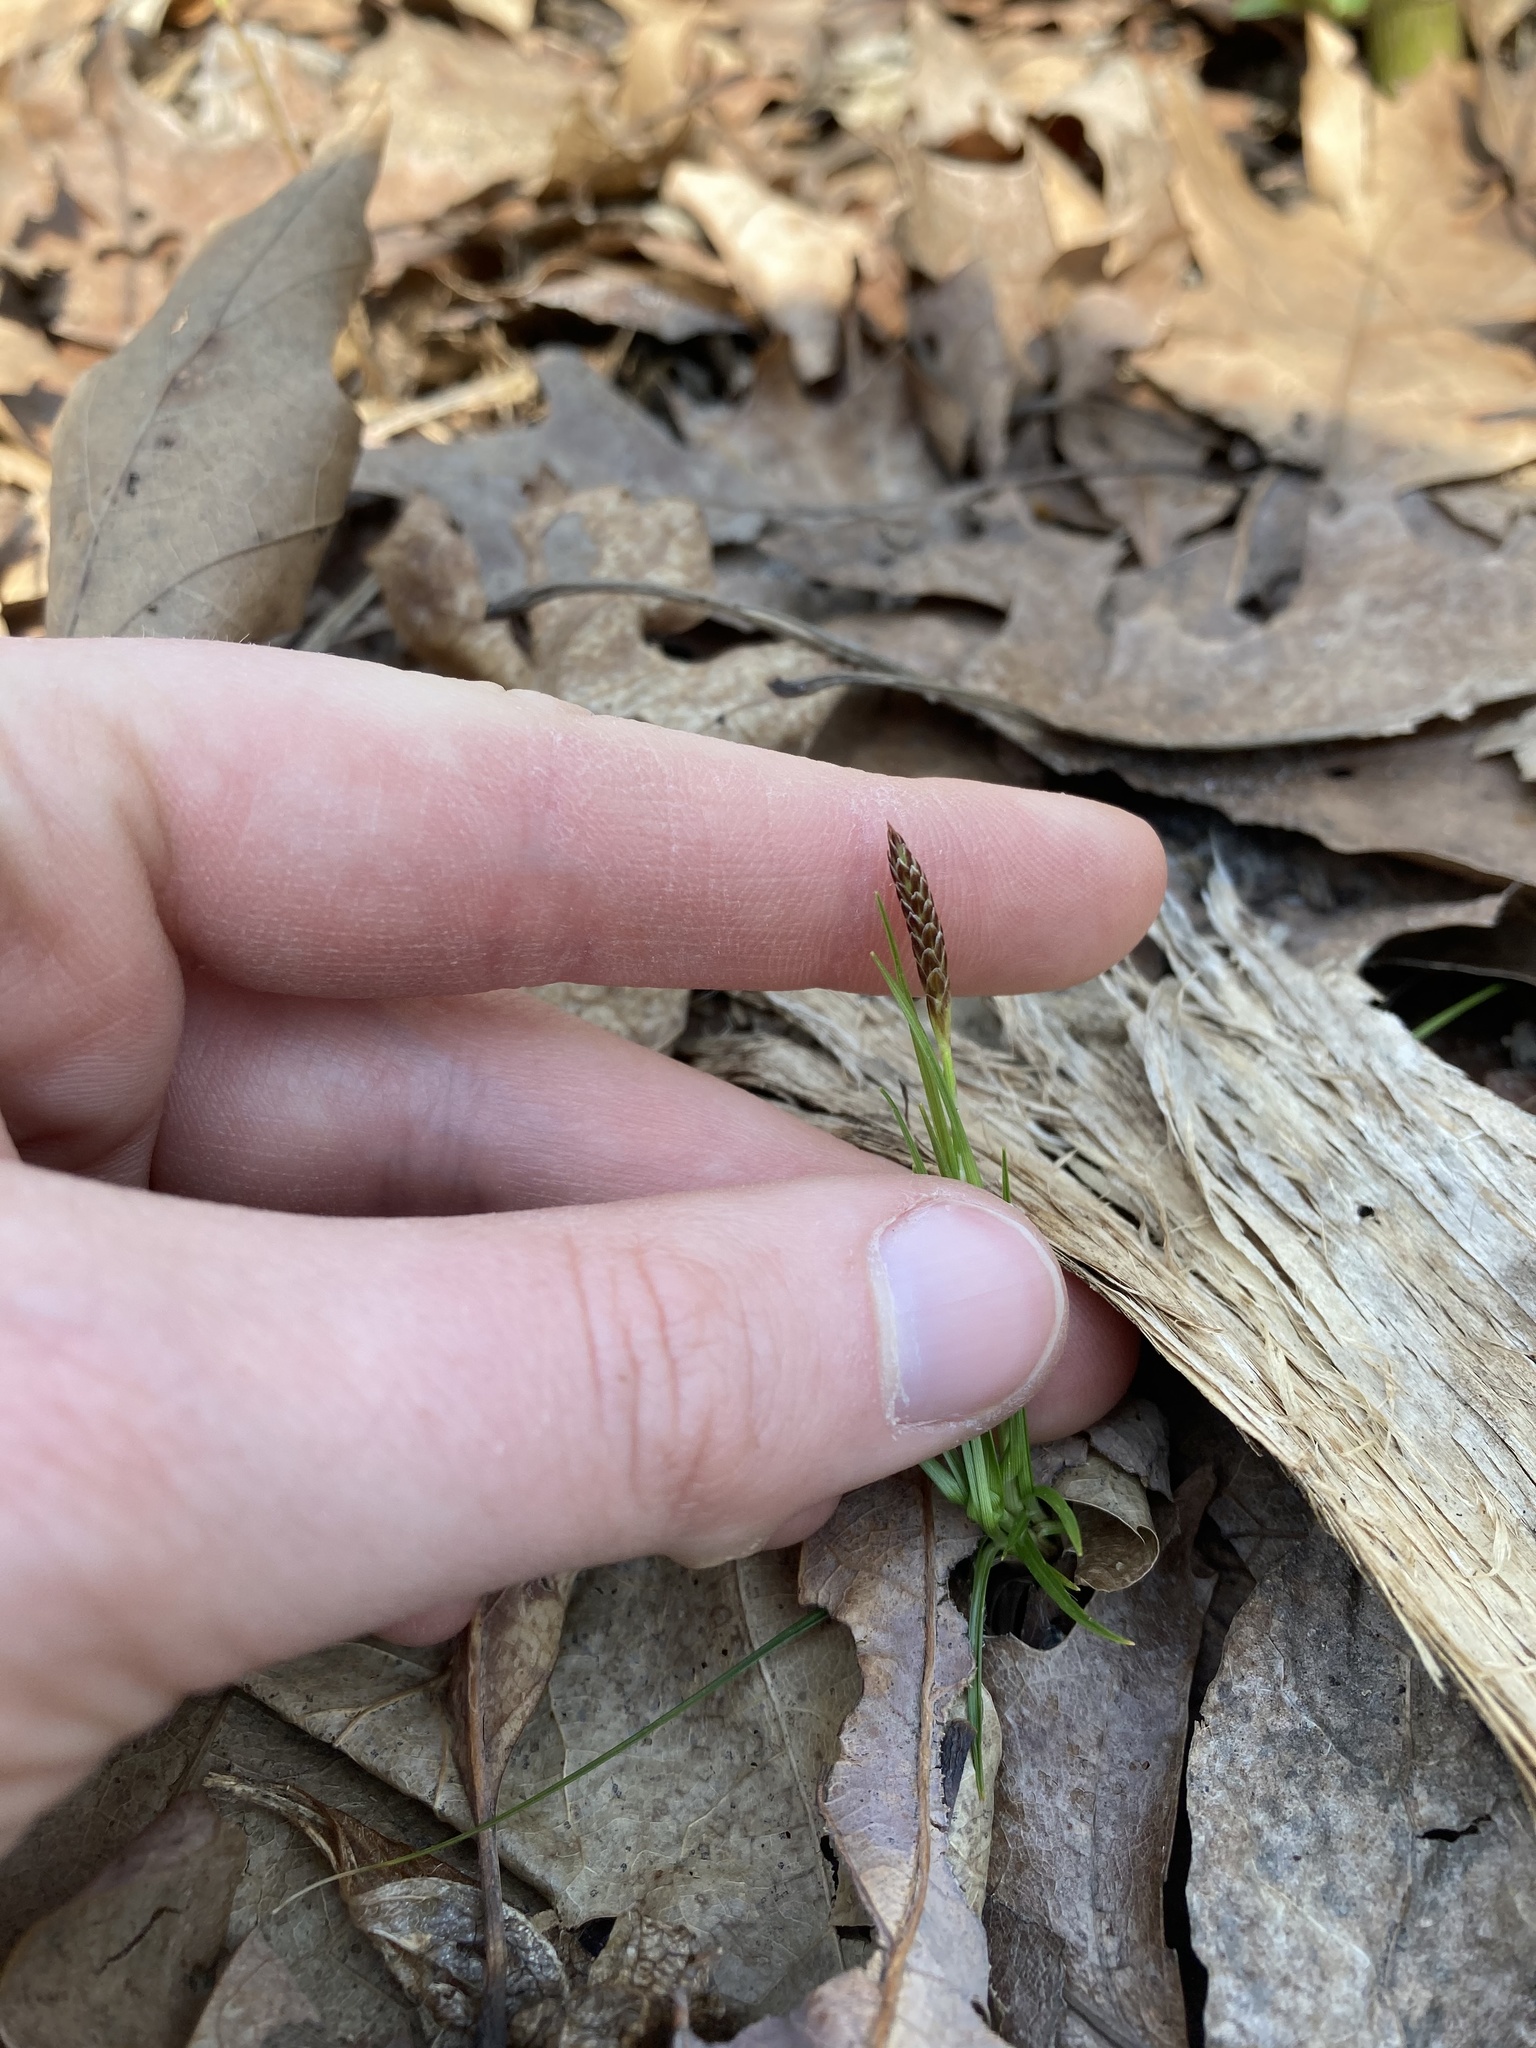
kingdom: Plantae
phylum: Tracheophyta
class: Liliopsida
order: Poales
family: Cyperaceae
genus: Carex
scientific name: Carex pensylvanica
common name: Common oak sedge
